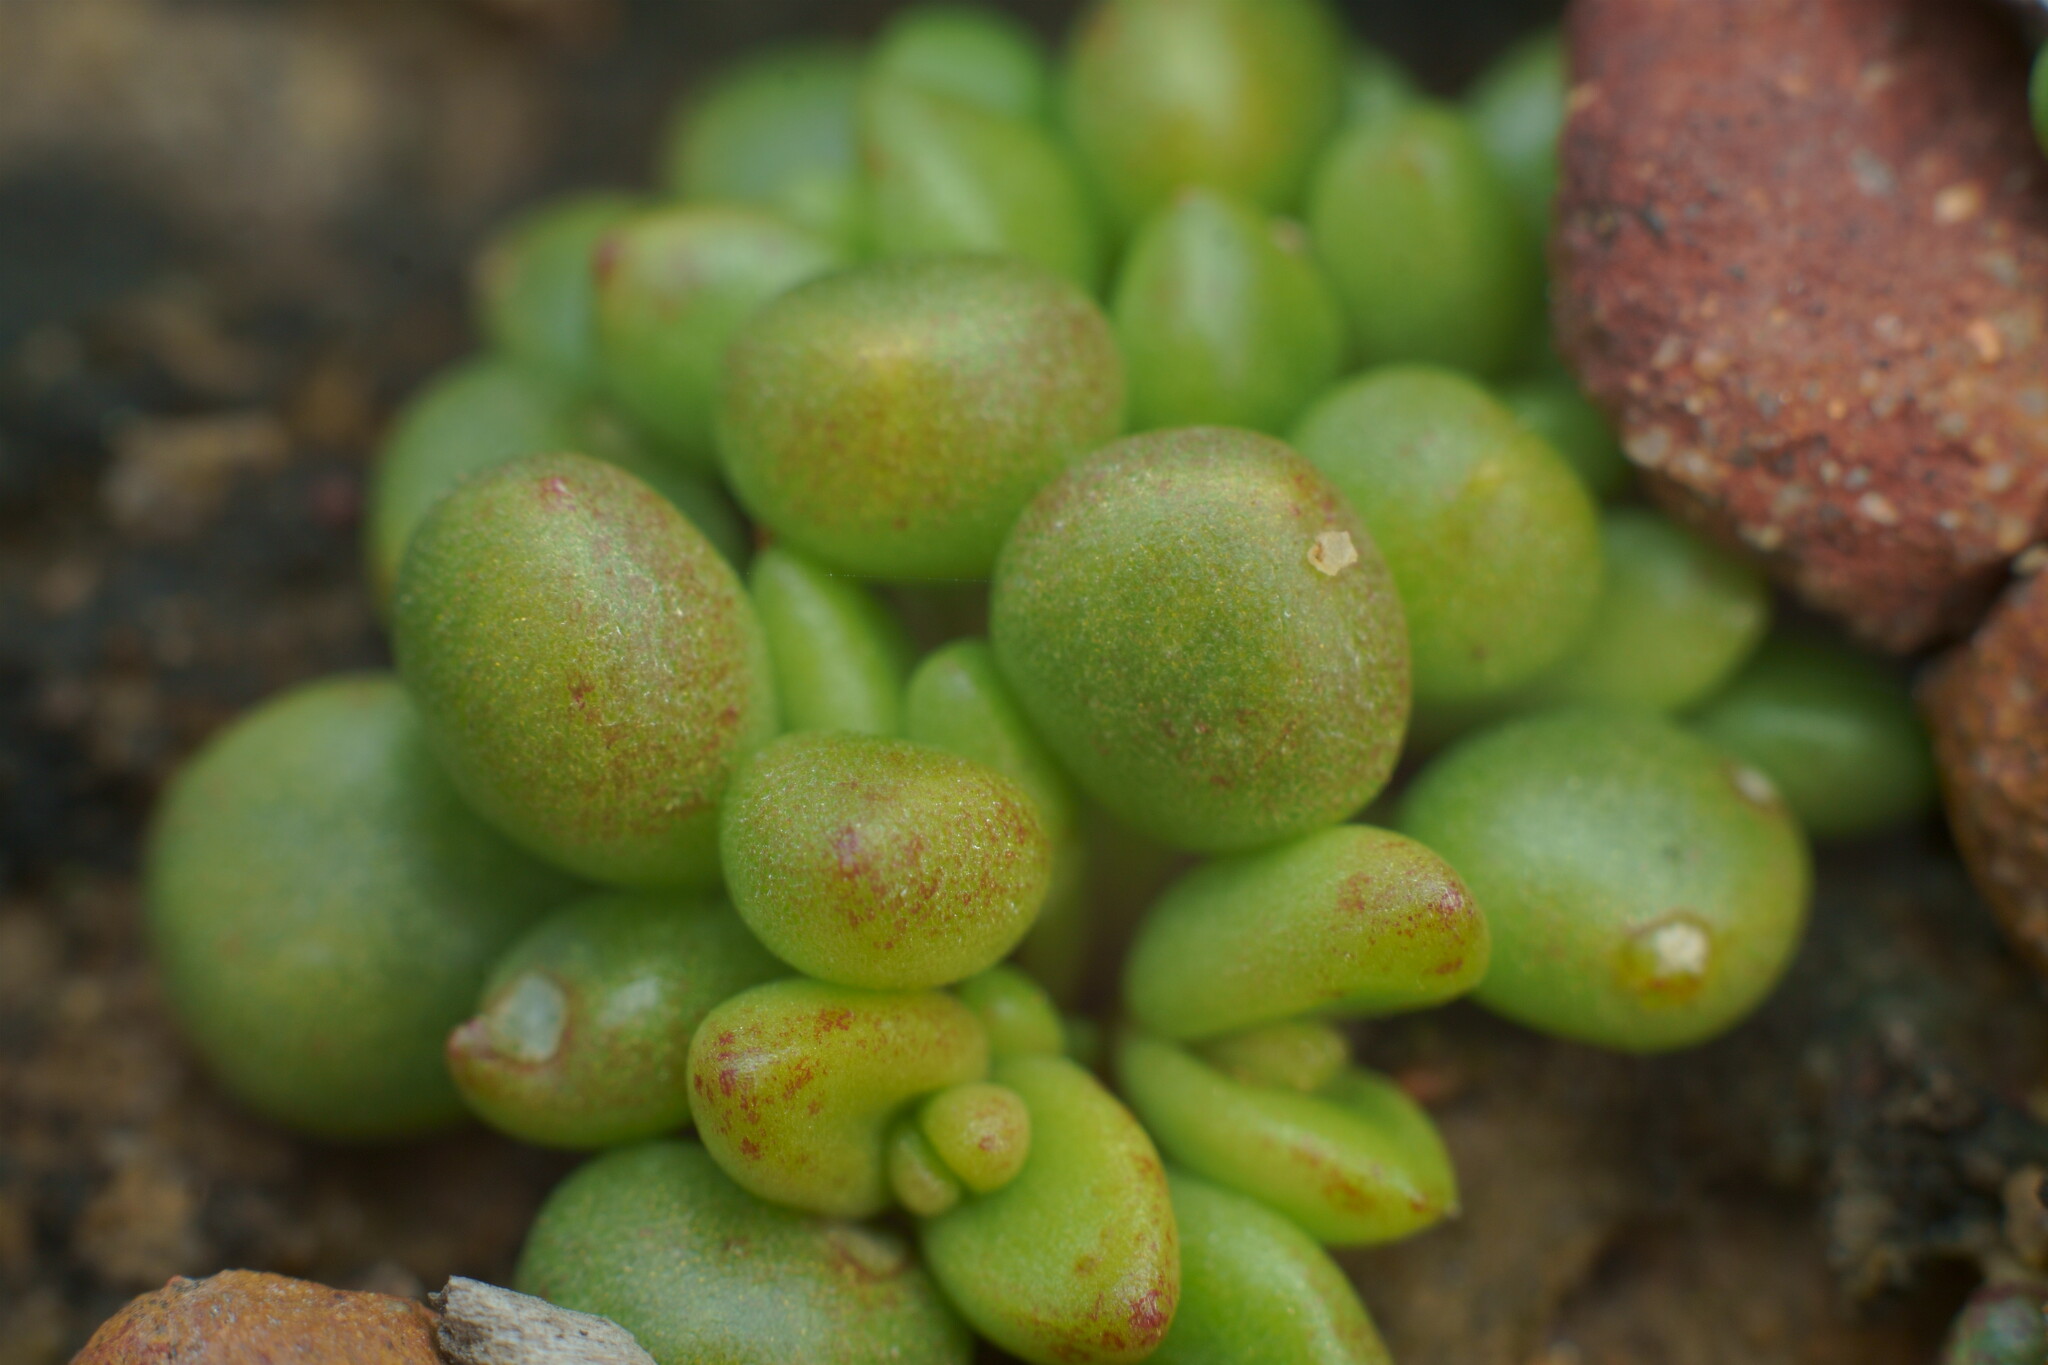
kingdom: Plantae
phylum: Tracheophyta
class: Magnoliopsida
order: Saxifragales
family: Crassulaceae
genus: Dudleya
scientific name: Dudleya blochmaniae
